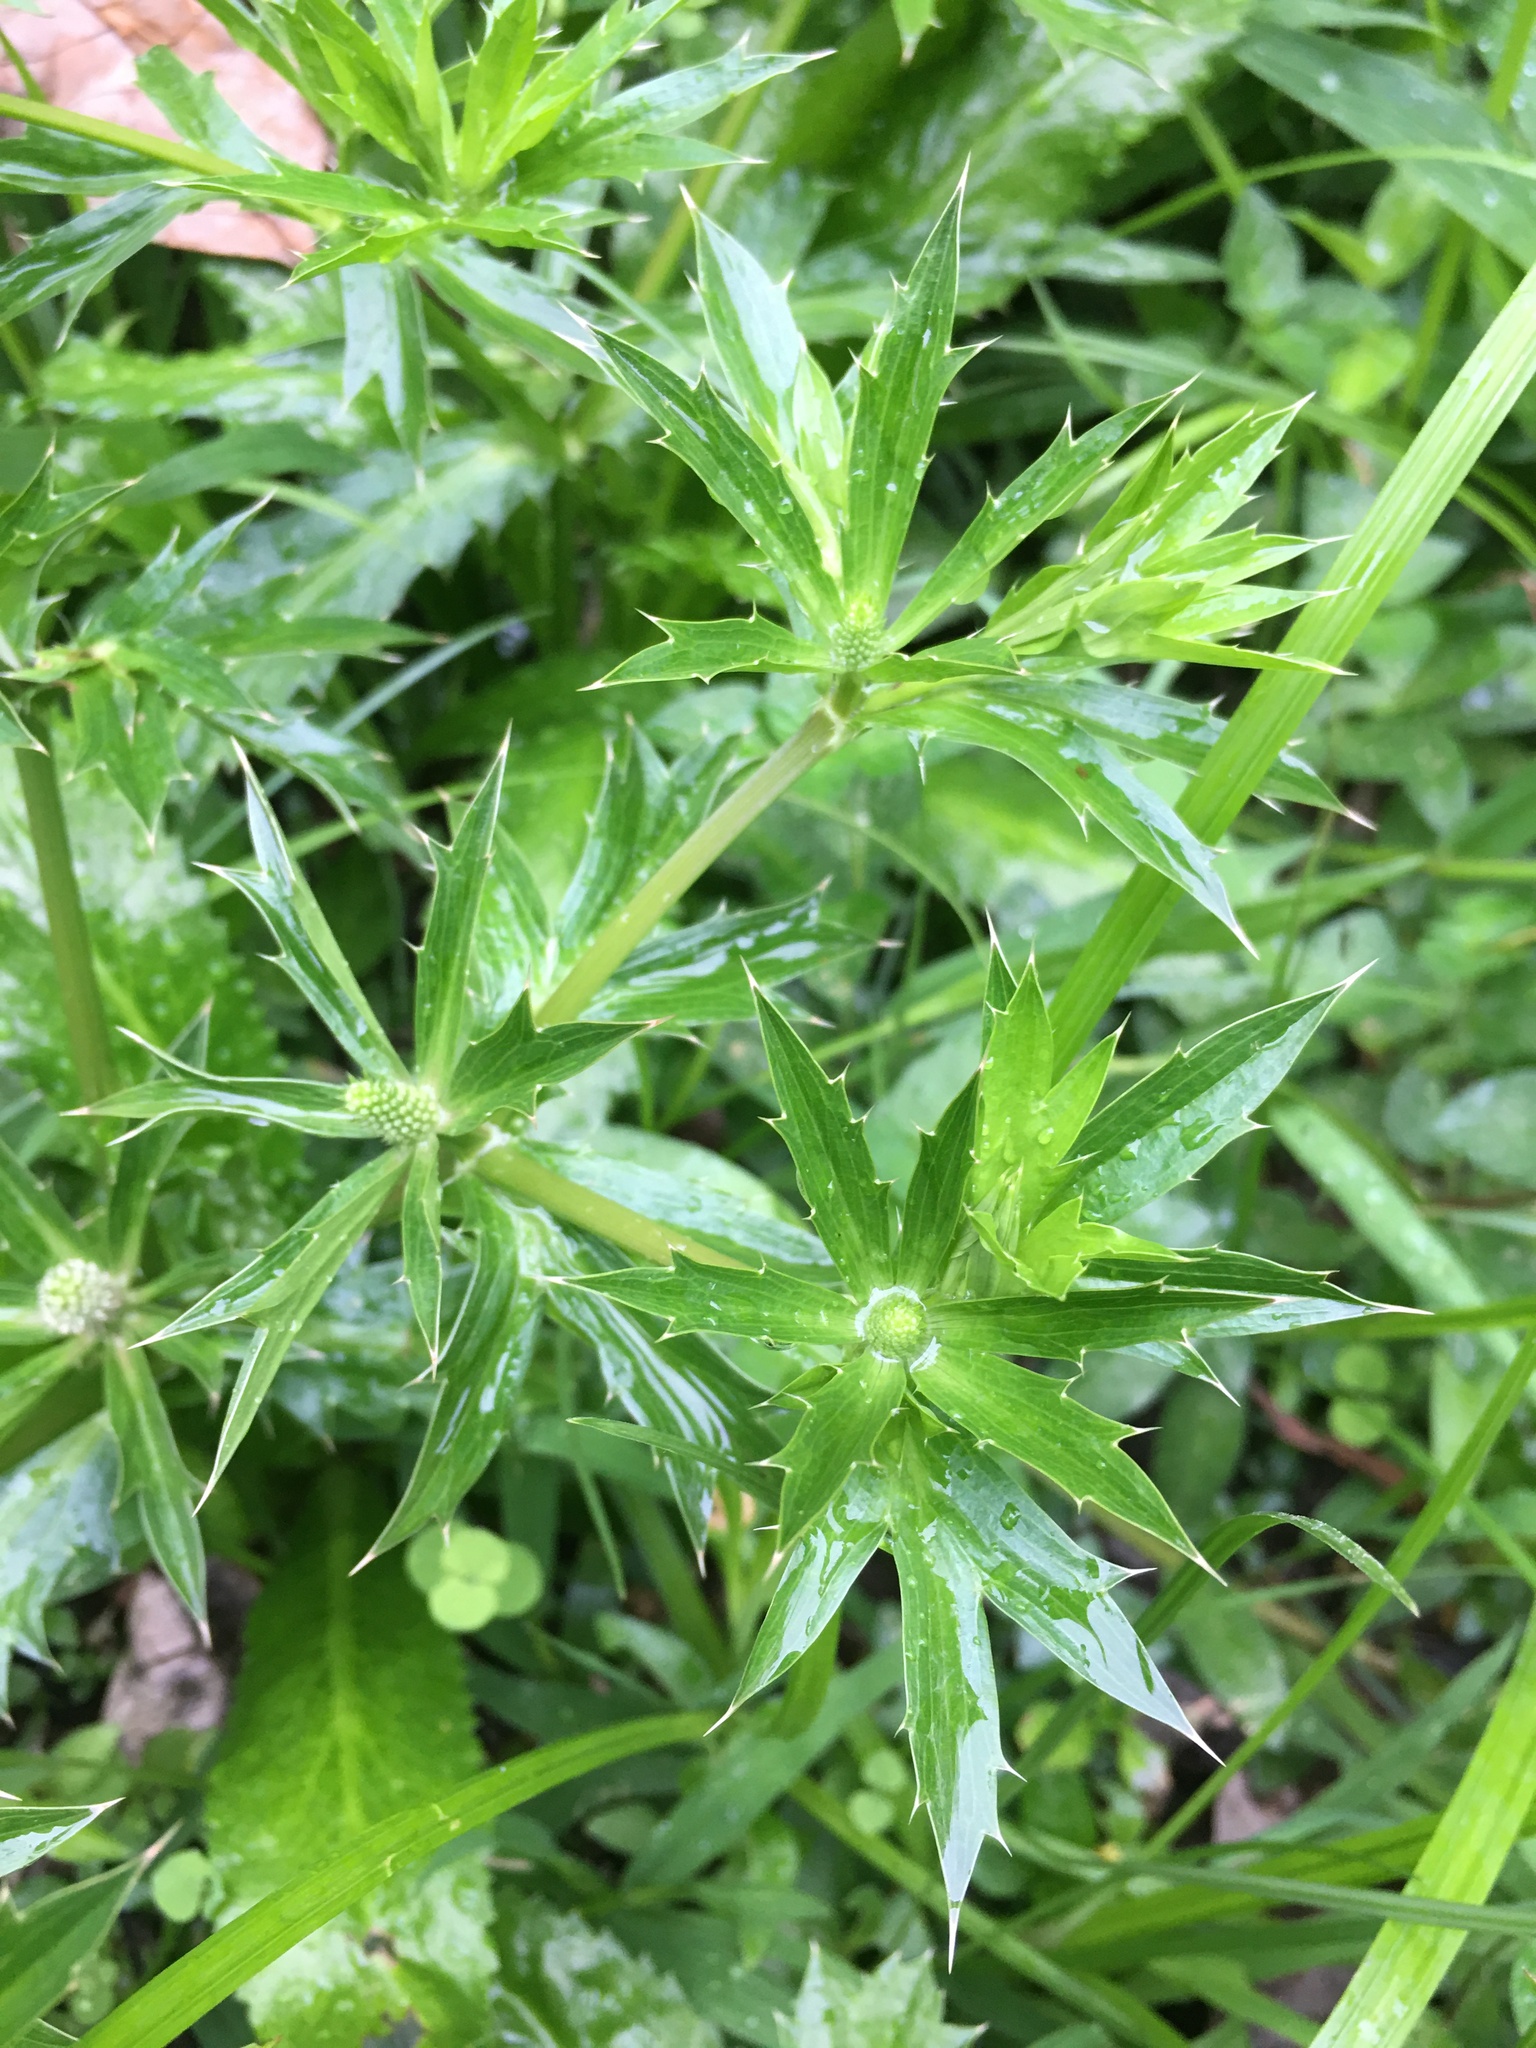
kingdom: Plantae
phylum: Tracheophyta
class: Magnoliopsida
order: Apiales
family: Apiaceae
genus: Eryngium
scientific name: Eryngium foetidum
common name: Fitweed
